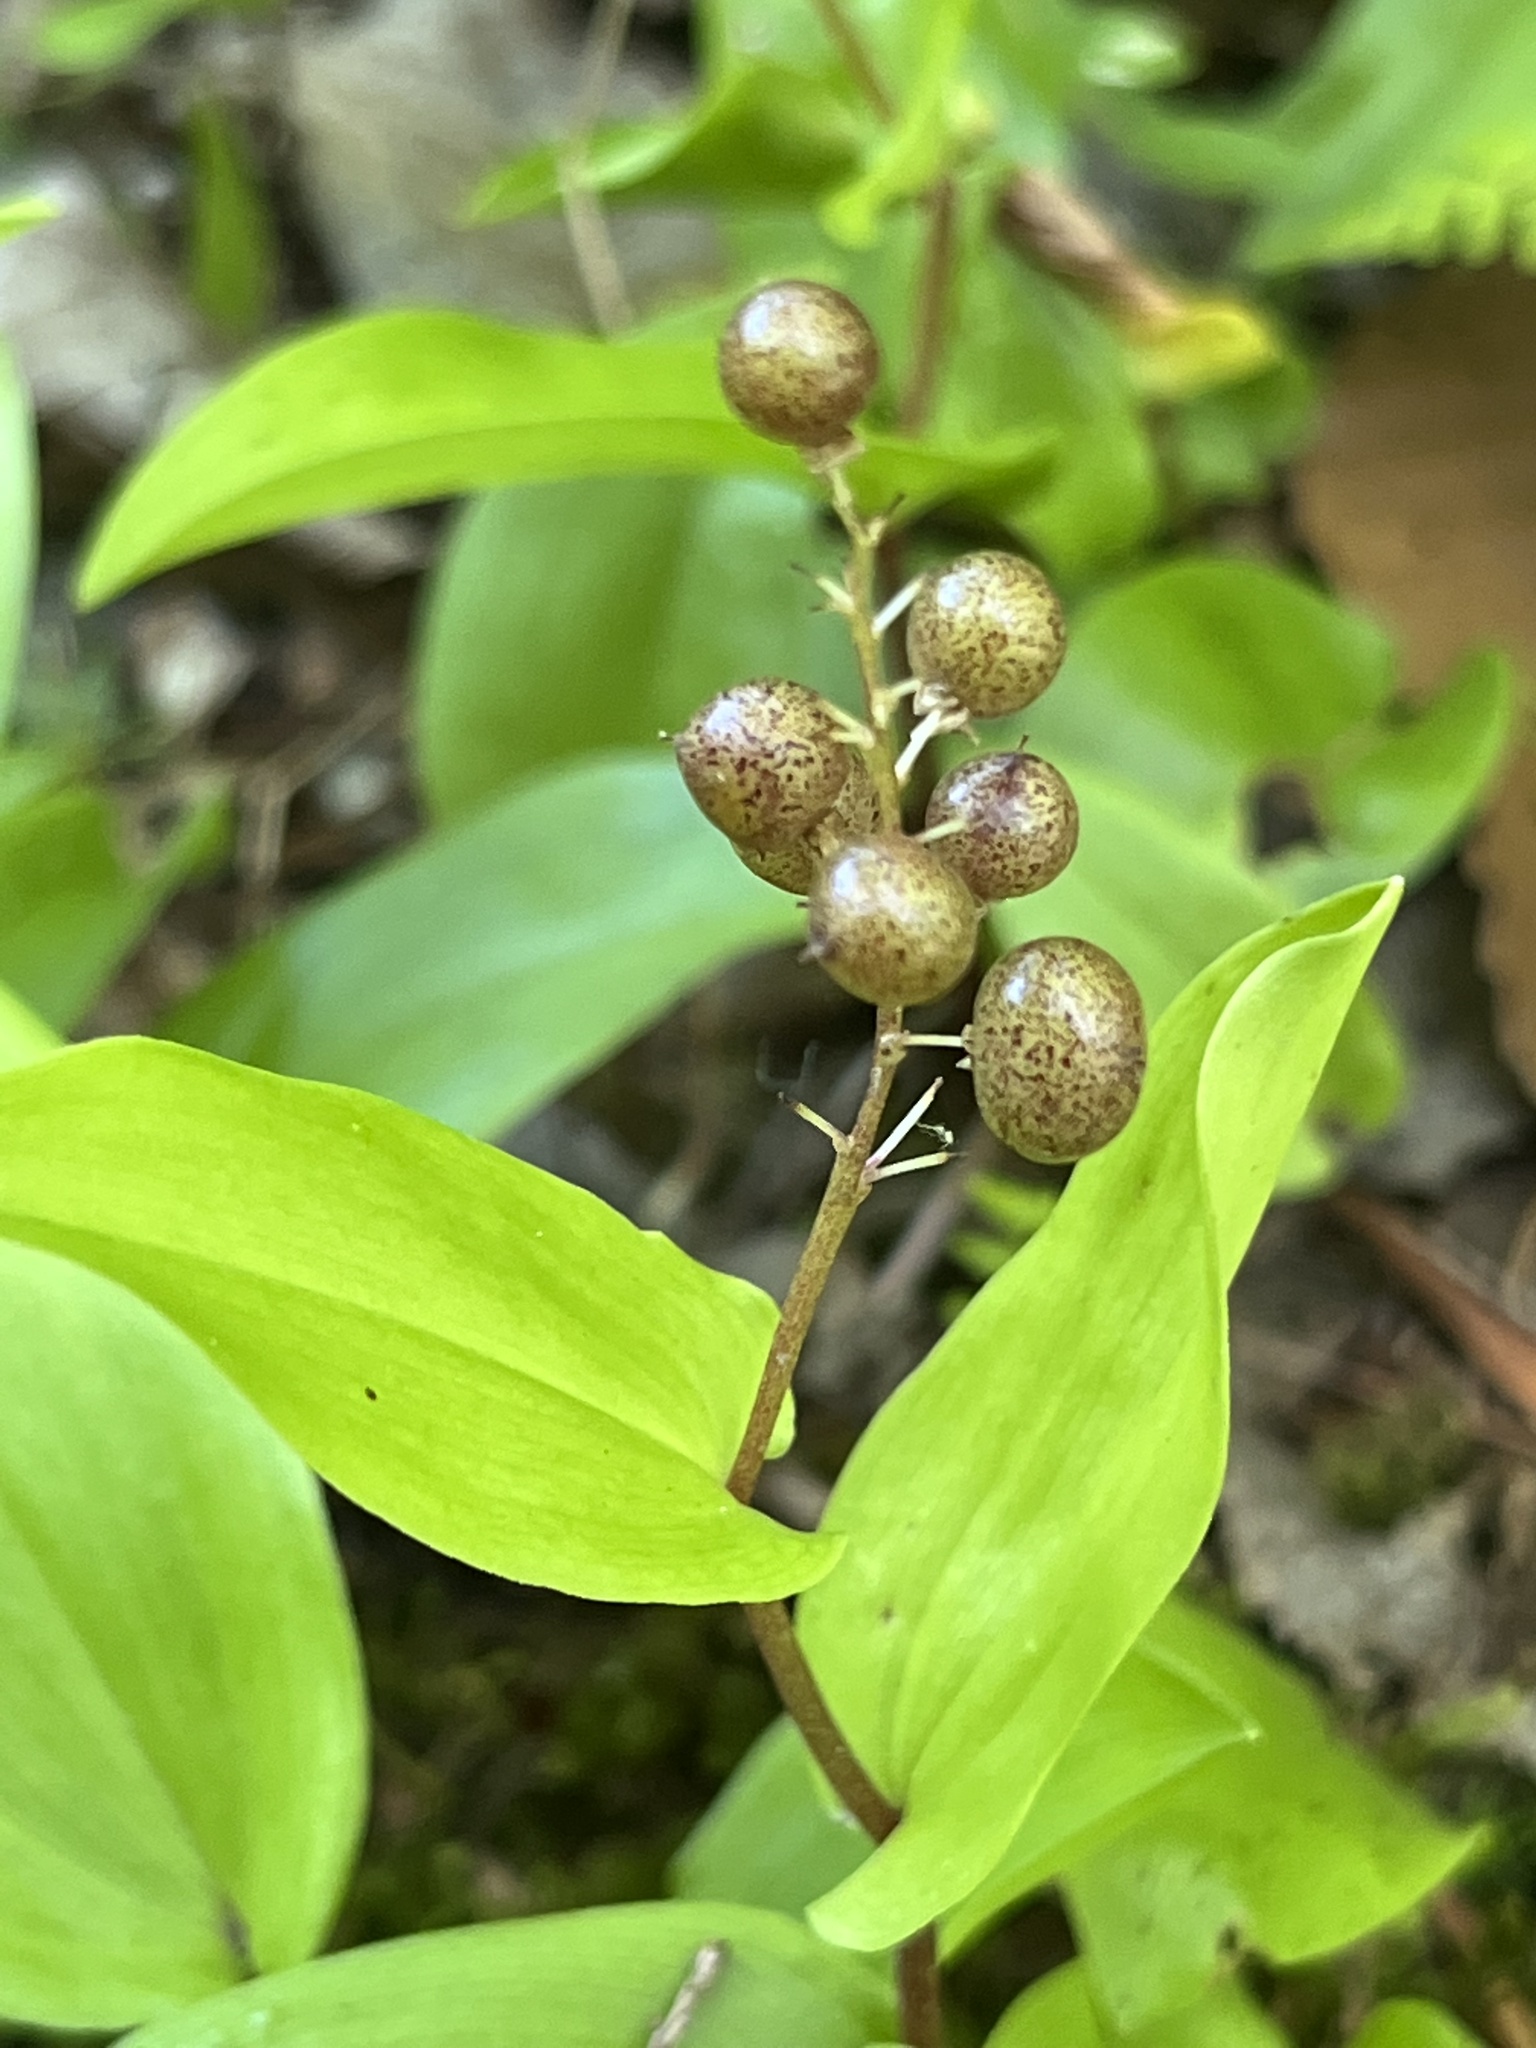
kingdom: Plantae
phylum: Tracheophyta
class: Liliopsida
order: Asparagales
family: Asparagaceae
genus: Maianthemum
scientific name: Maianthemum canadense
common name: False lily-of-the-valley
